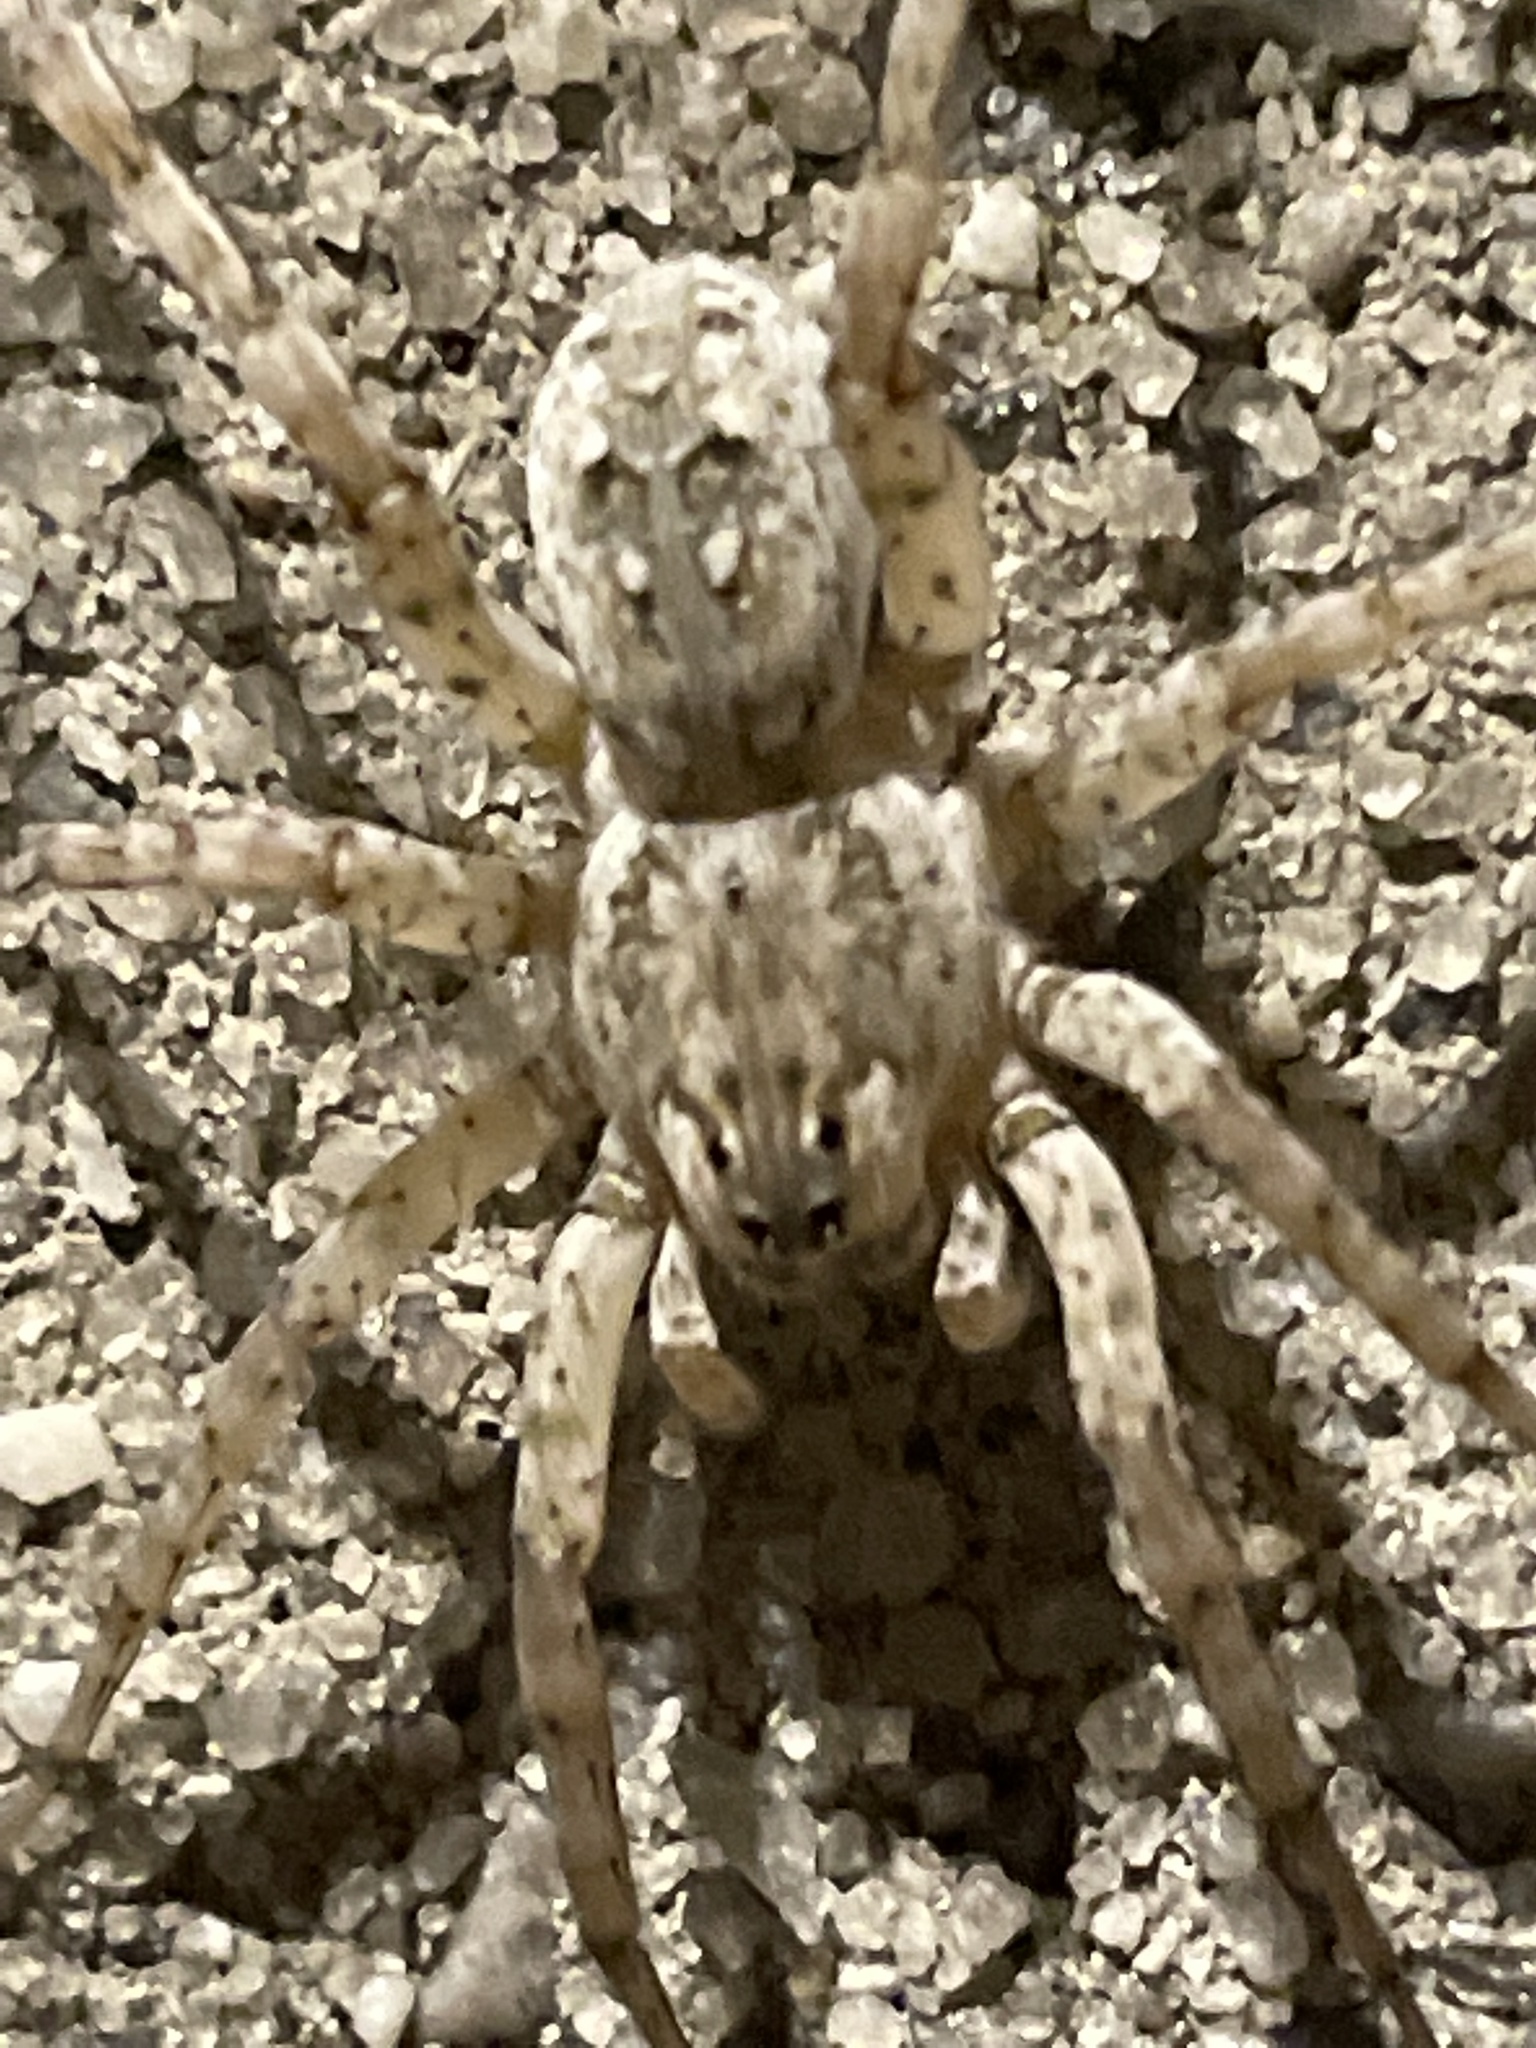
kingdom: Animalia
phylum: Arthropoda
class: Arachnida
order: Araneae
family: Lycosidae
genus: Arctosa
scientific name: Arctosa littoralis
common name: Wolf spiders
